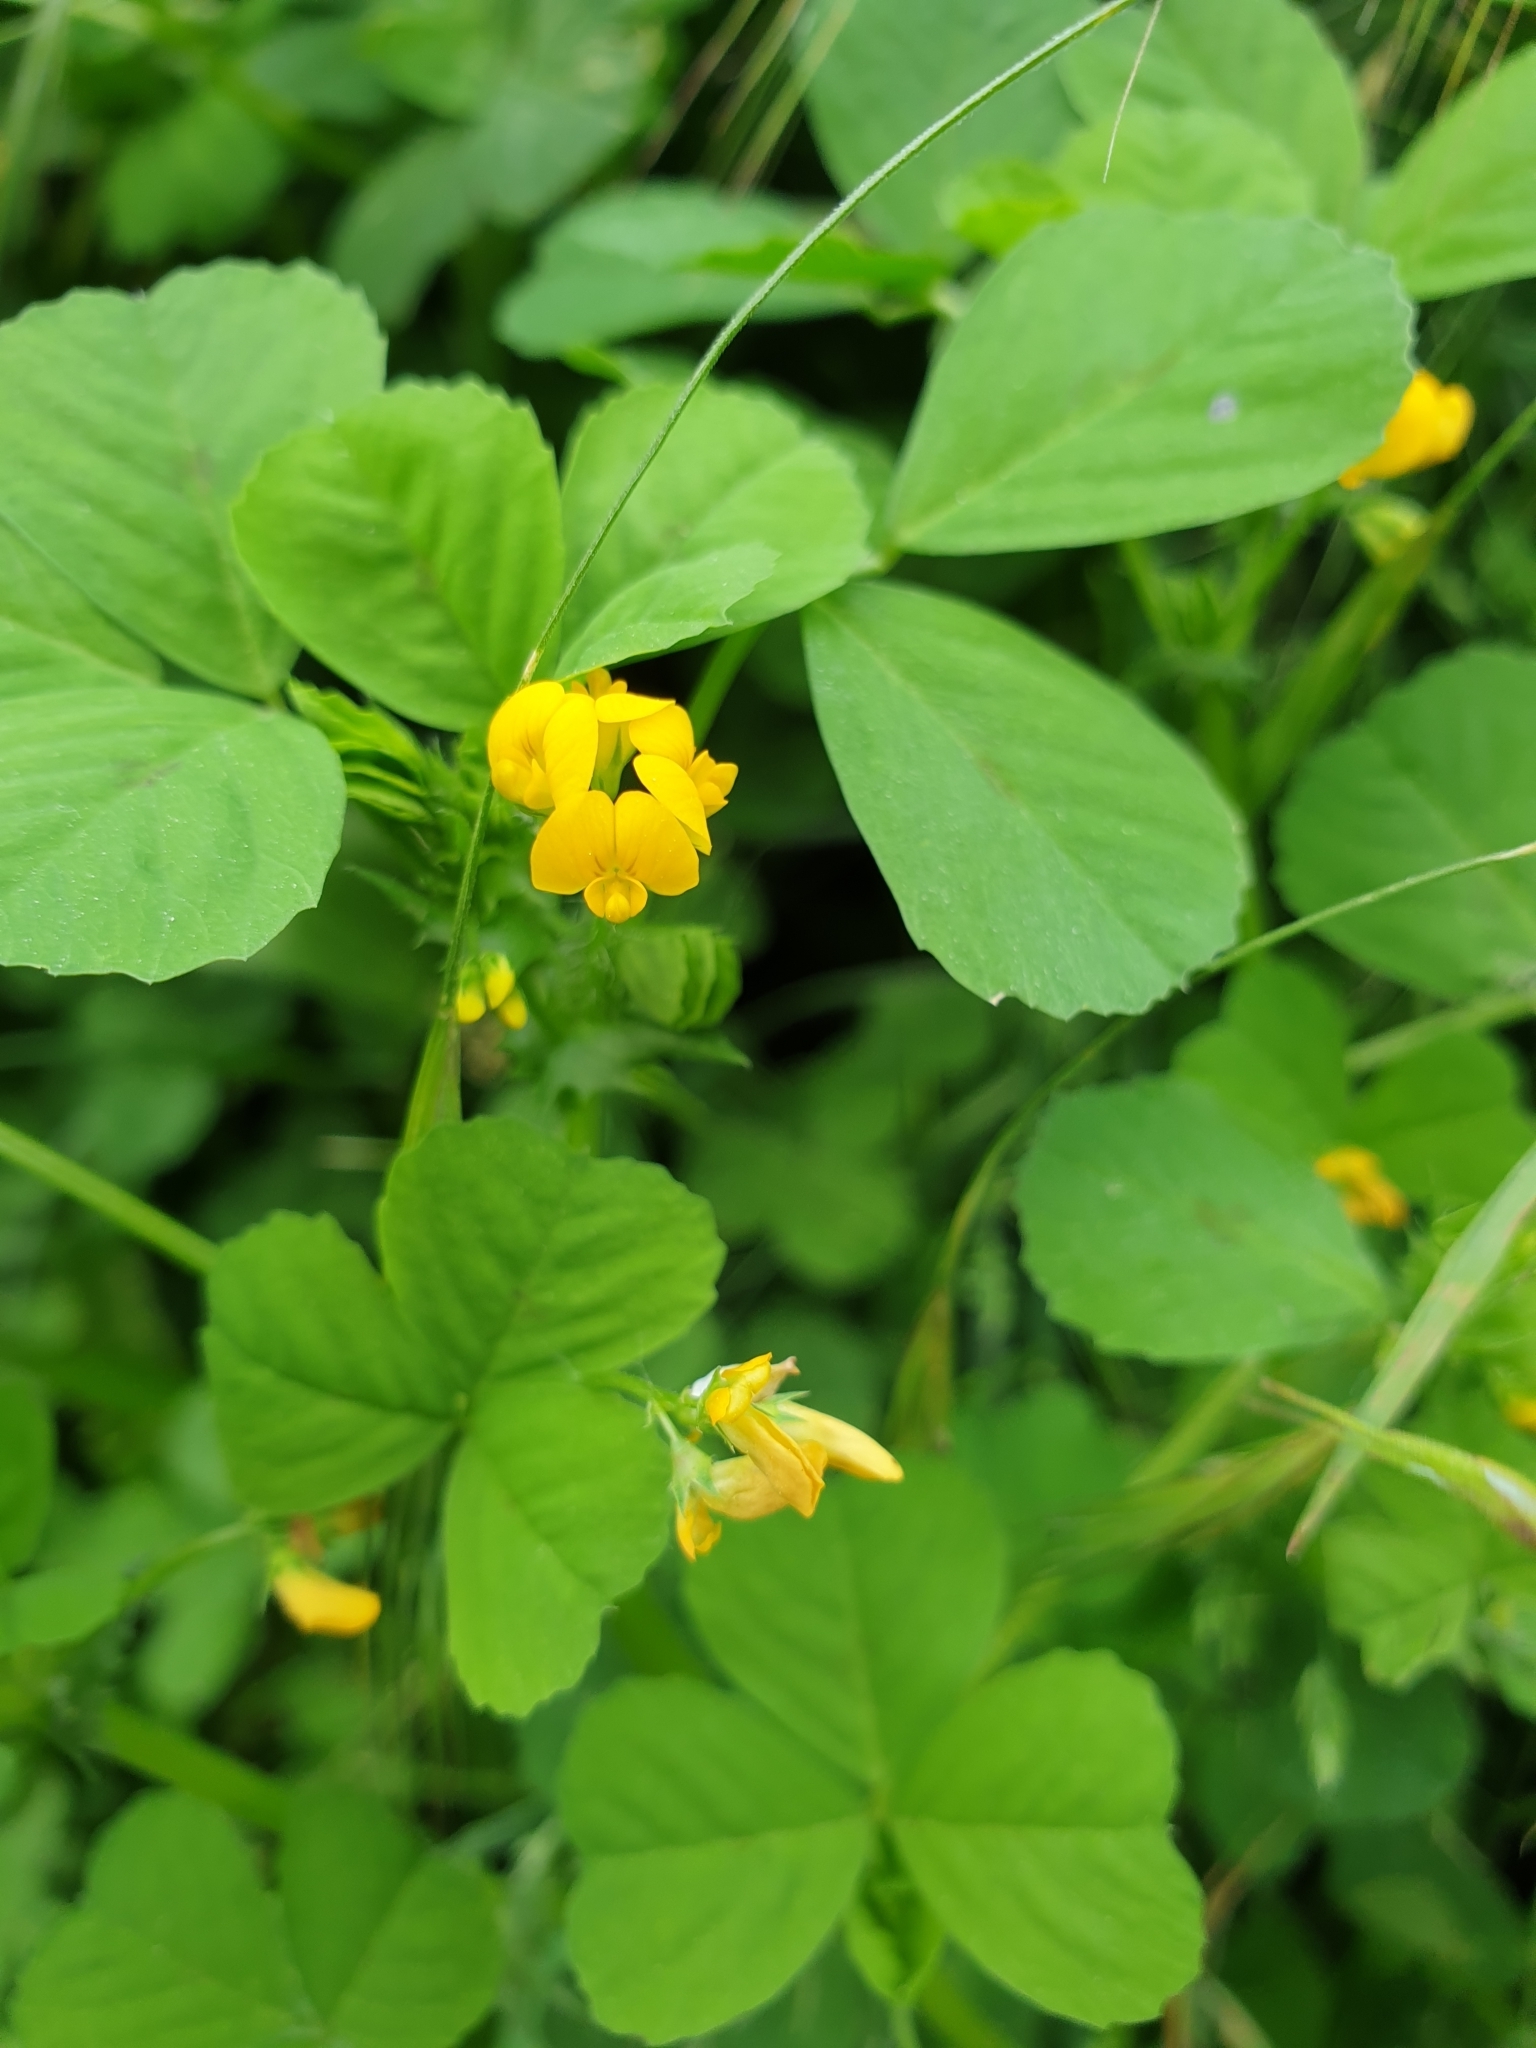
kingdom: Plantae
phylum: Tracheophyta
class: Magnoliopsida
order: Fabales
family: Fabaceae
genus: Medicago
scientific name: Medicago arabica
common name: Spotted medick
